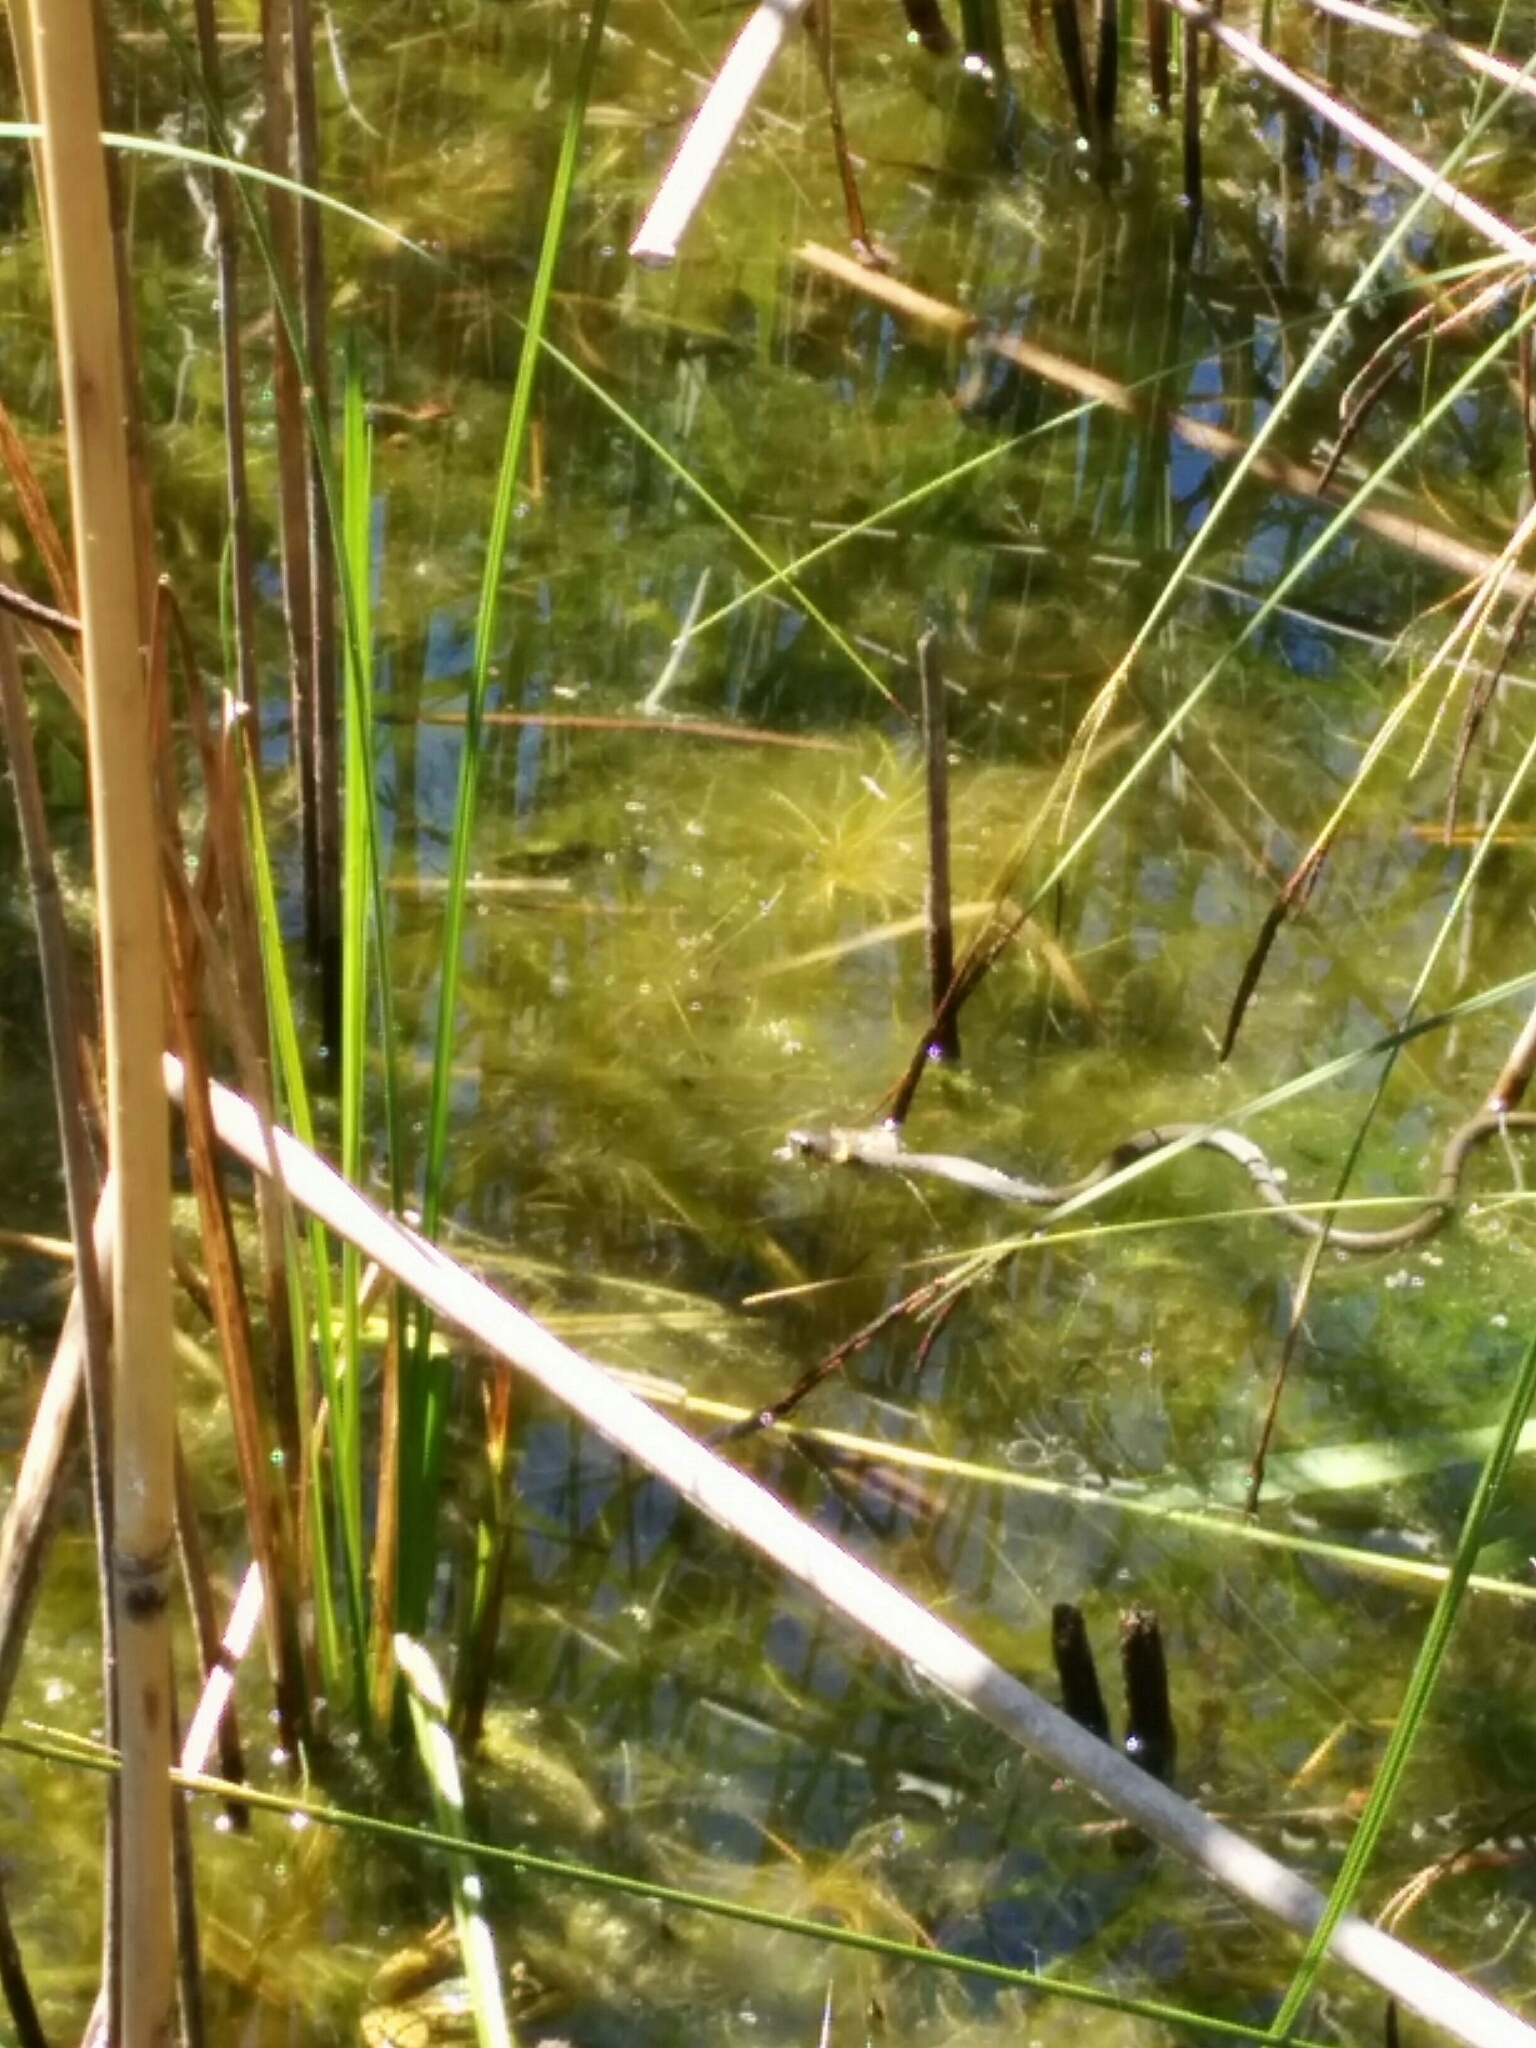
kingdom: Animalia
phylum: Chordata
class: Squamata
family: Colubridae
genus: Natrix
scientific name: Natrix helvetica
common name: Banded grass snake
